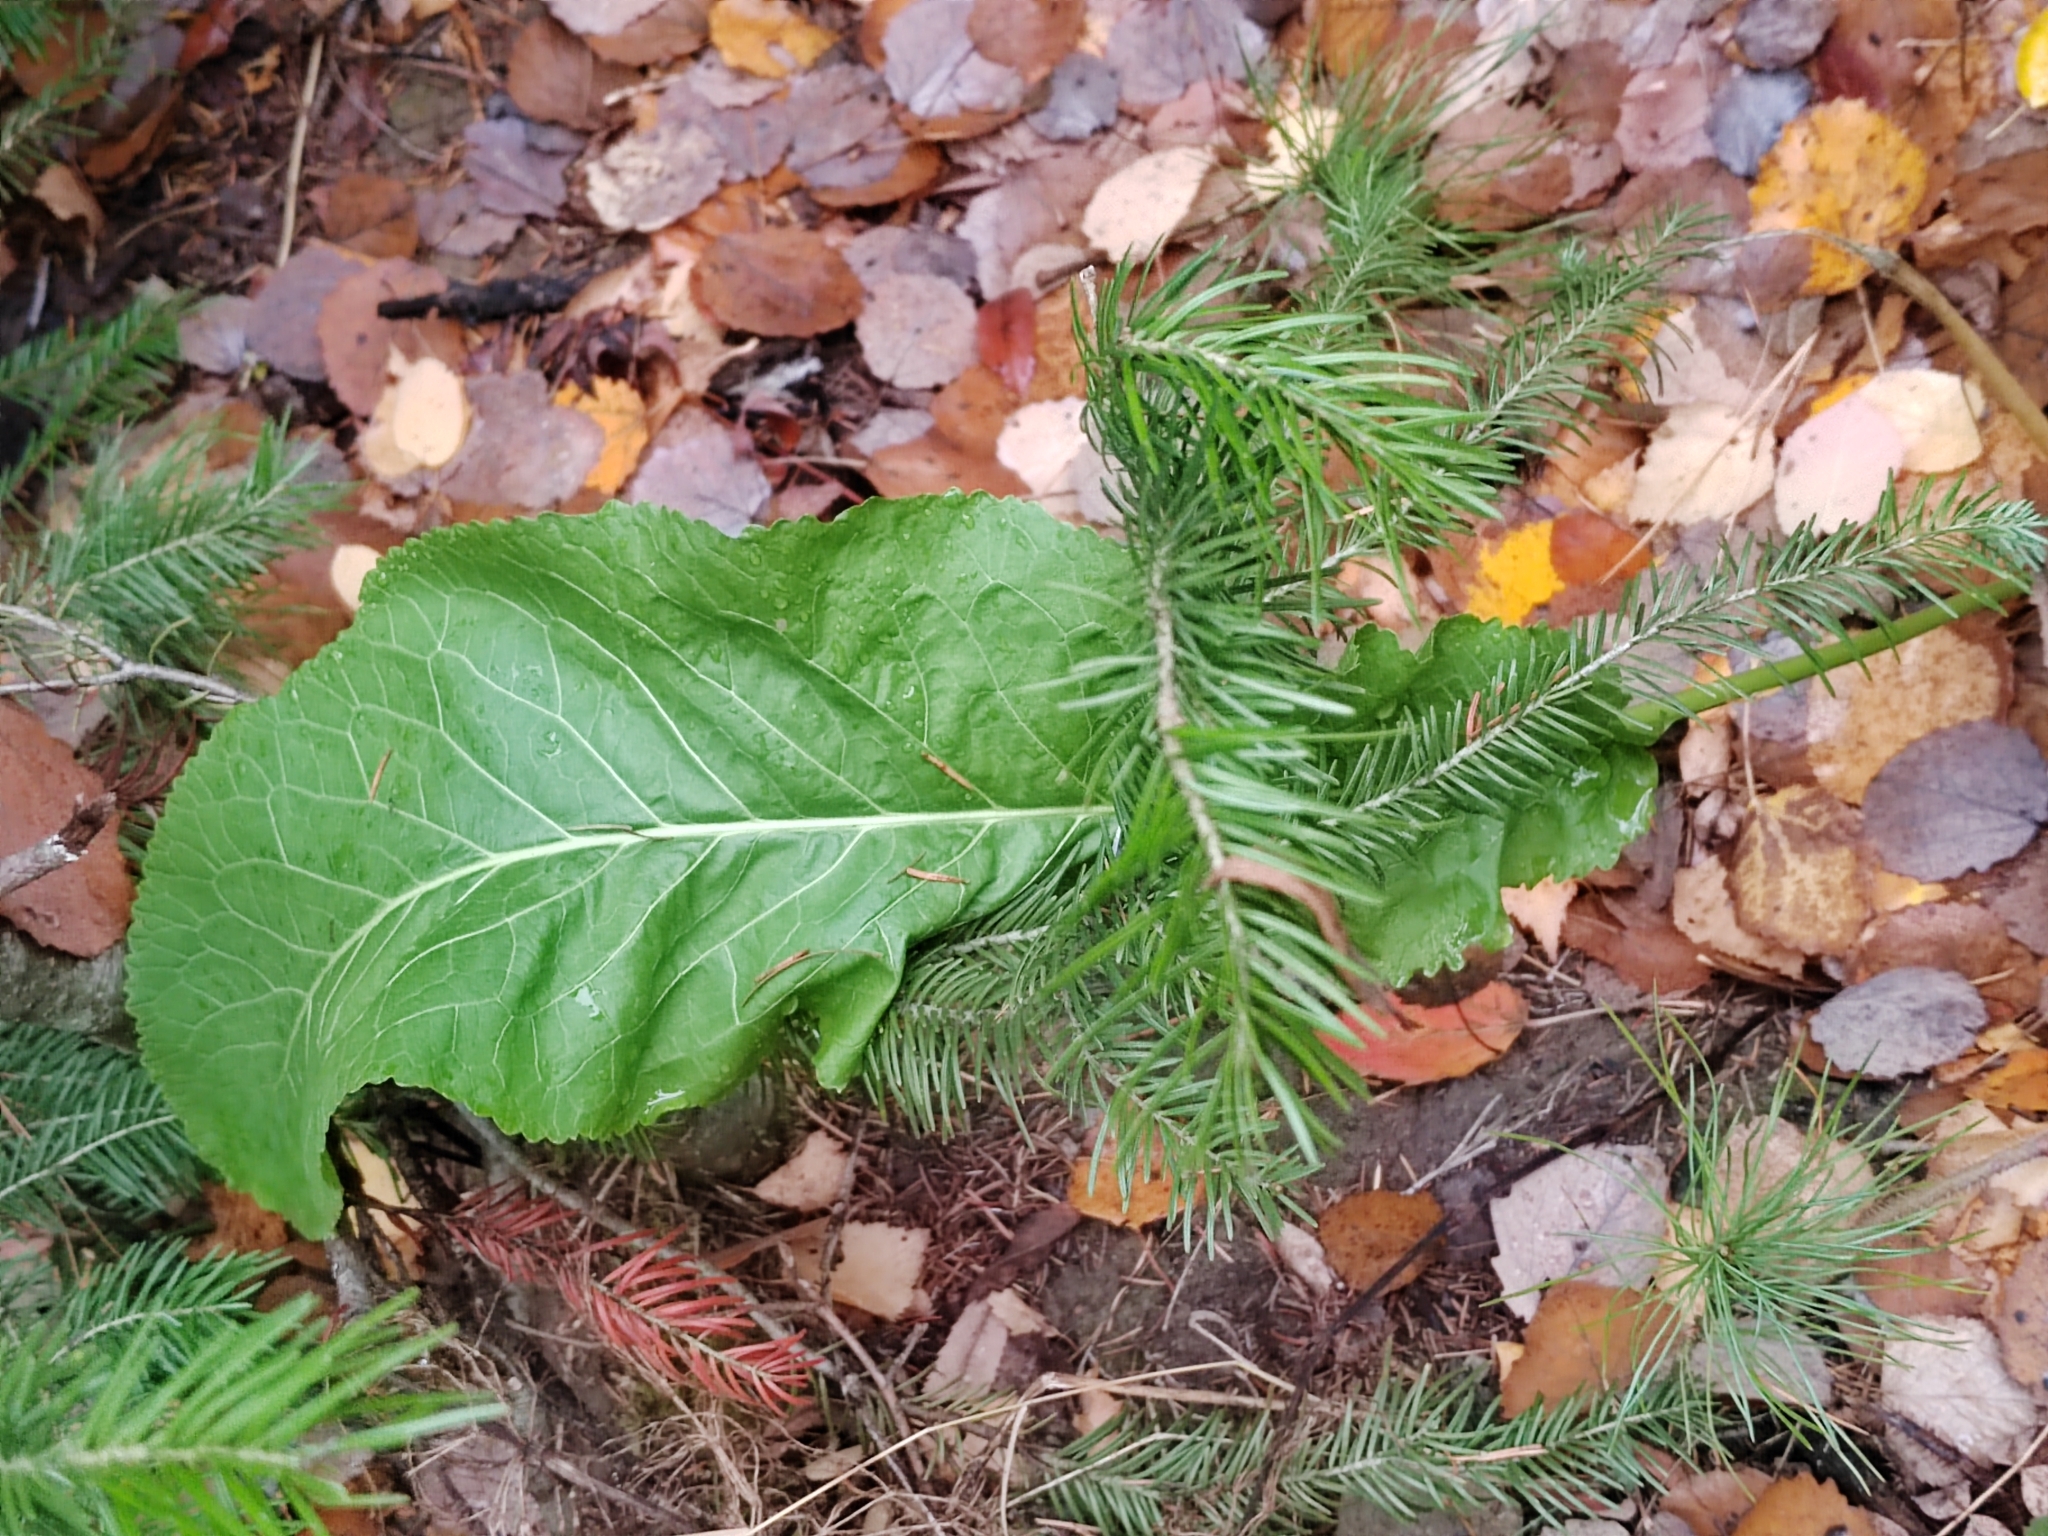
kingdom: Plantae
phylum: Tracheophyta
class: Magnoliopsida
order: Brassicales
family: Brassicaceae
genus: Armoracia
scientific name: Armoracia rusticana
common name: Horseradish
